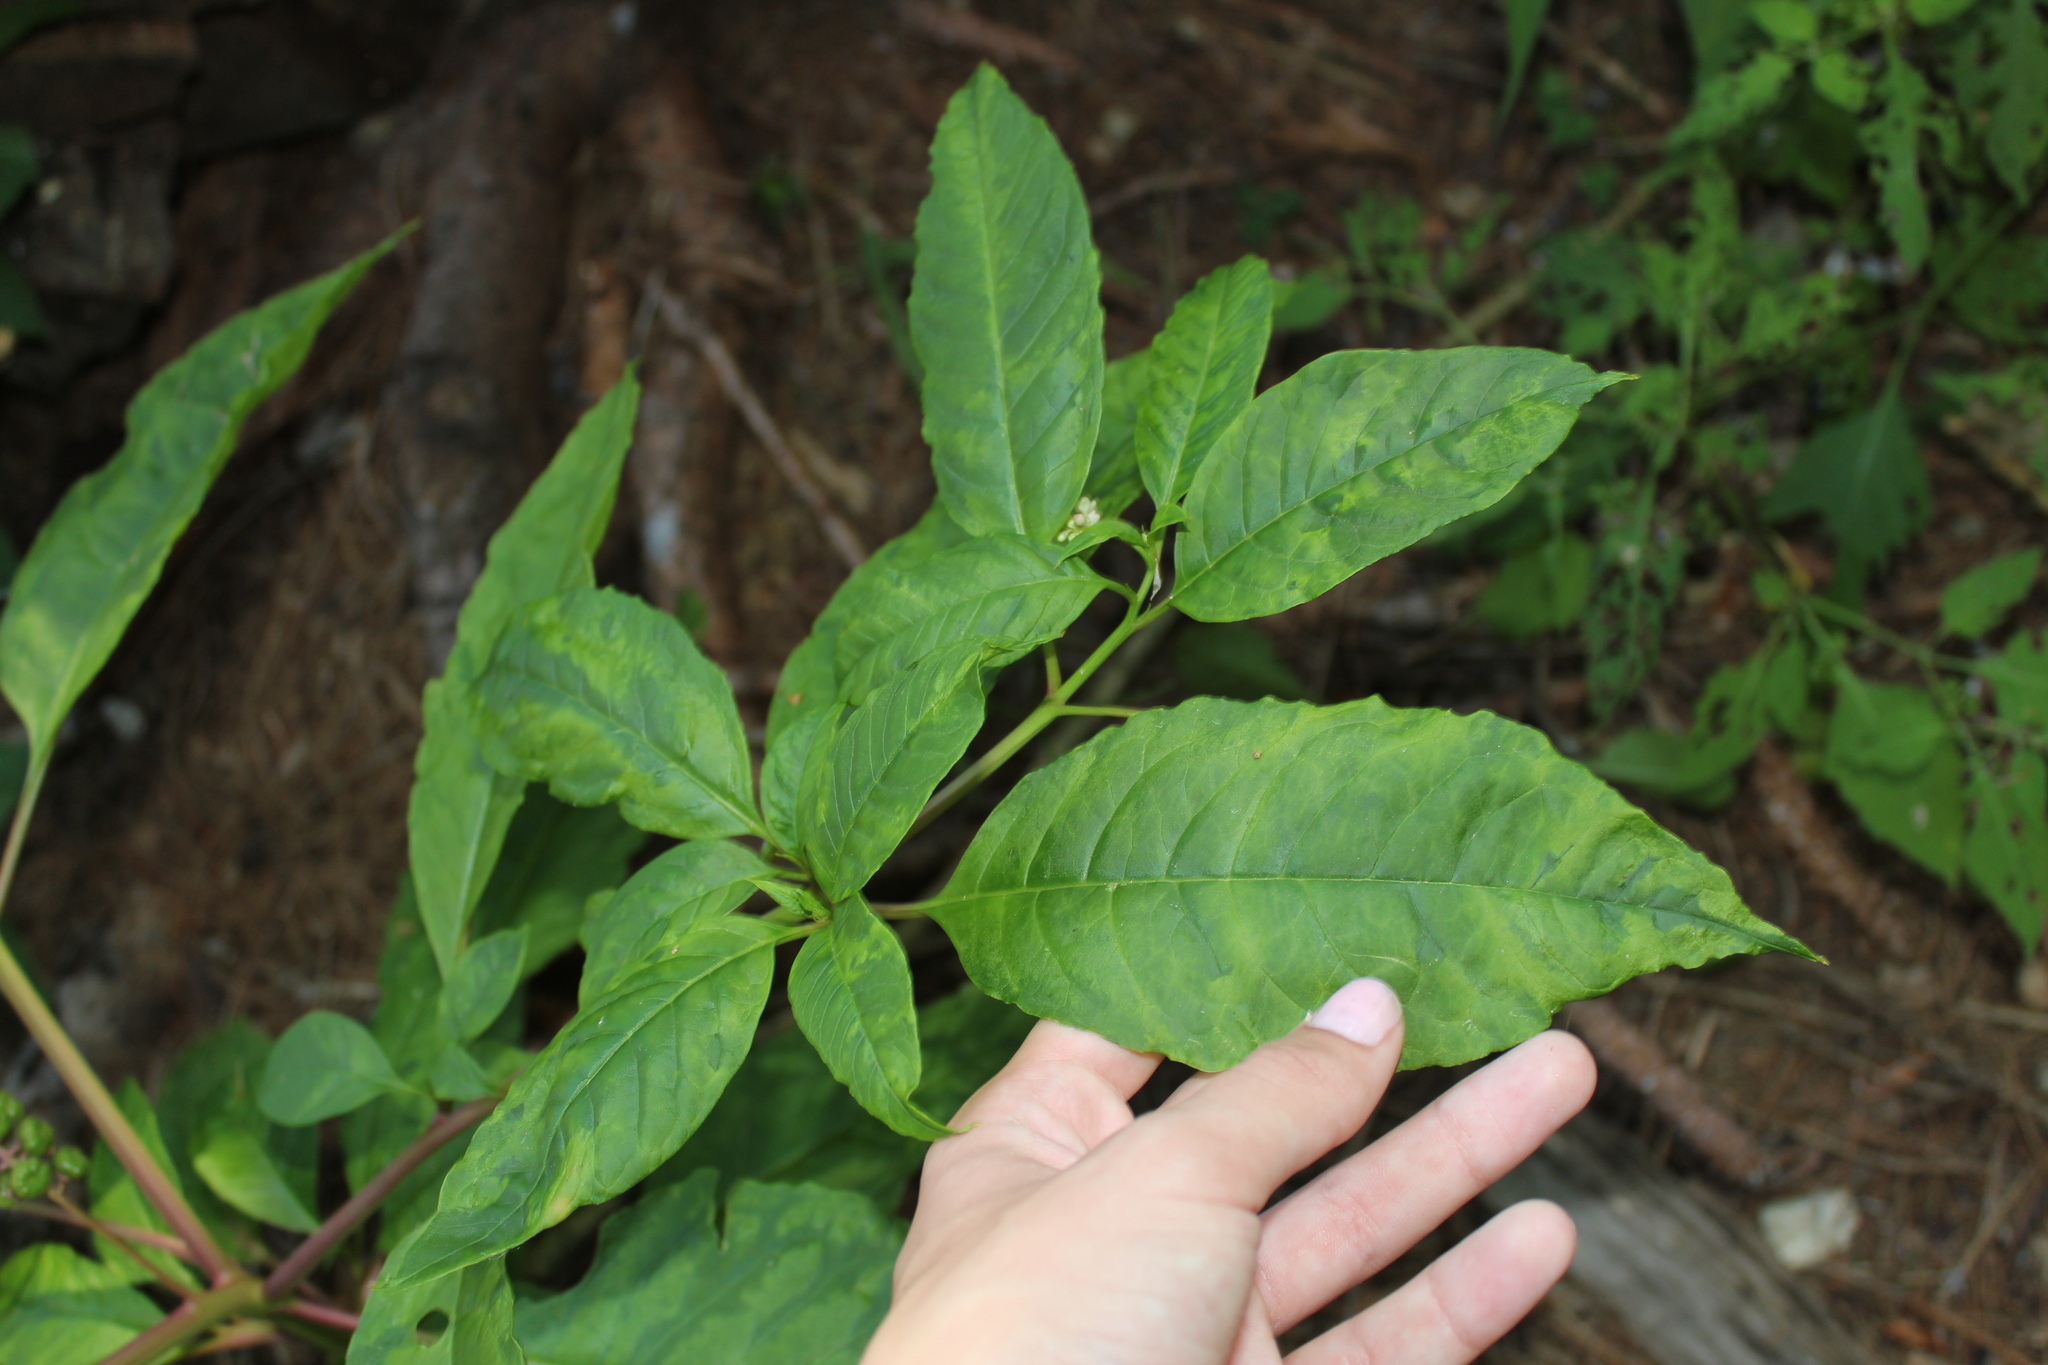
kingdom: Plantae
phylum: Tracheophyta
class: Magnoliopsida
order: Caryophyllales
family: Phytolaccaceae
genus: Phytolacca
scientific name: Phytolacca americana
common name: American pokeweed
